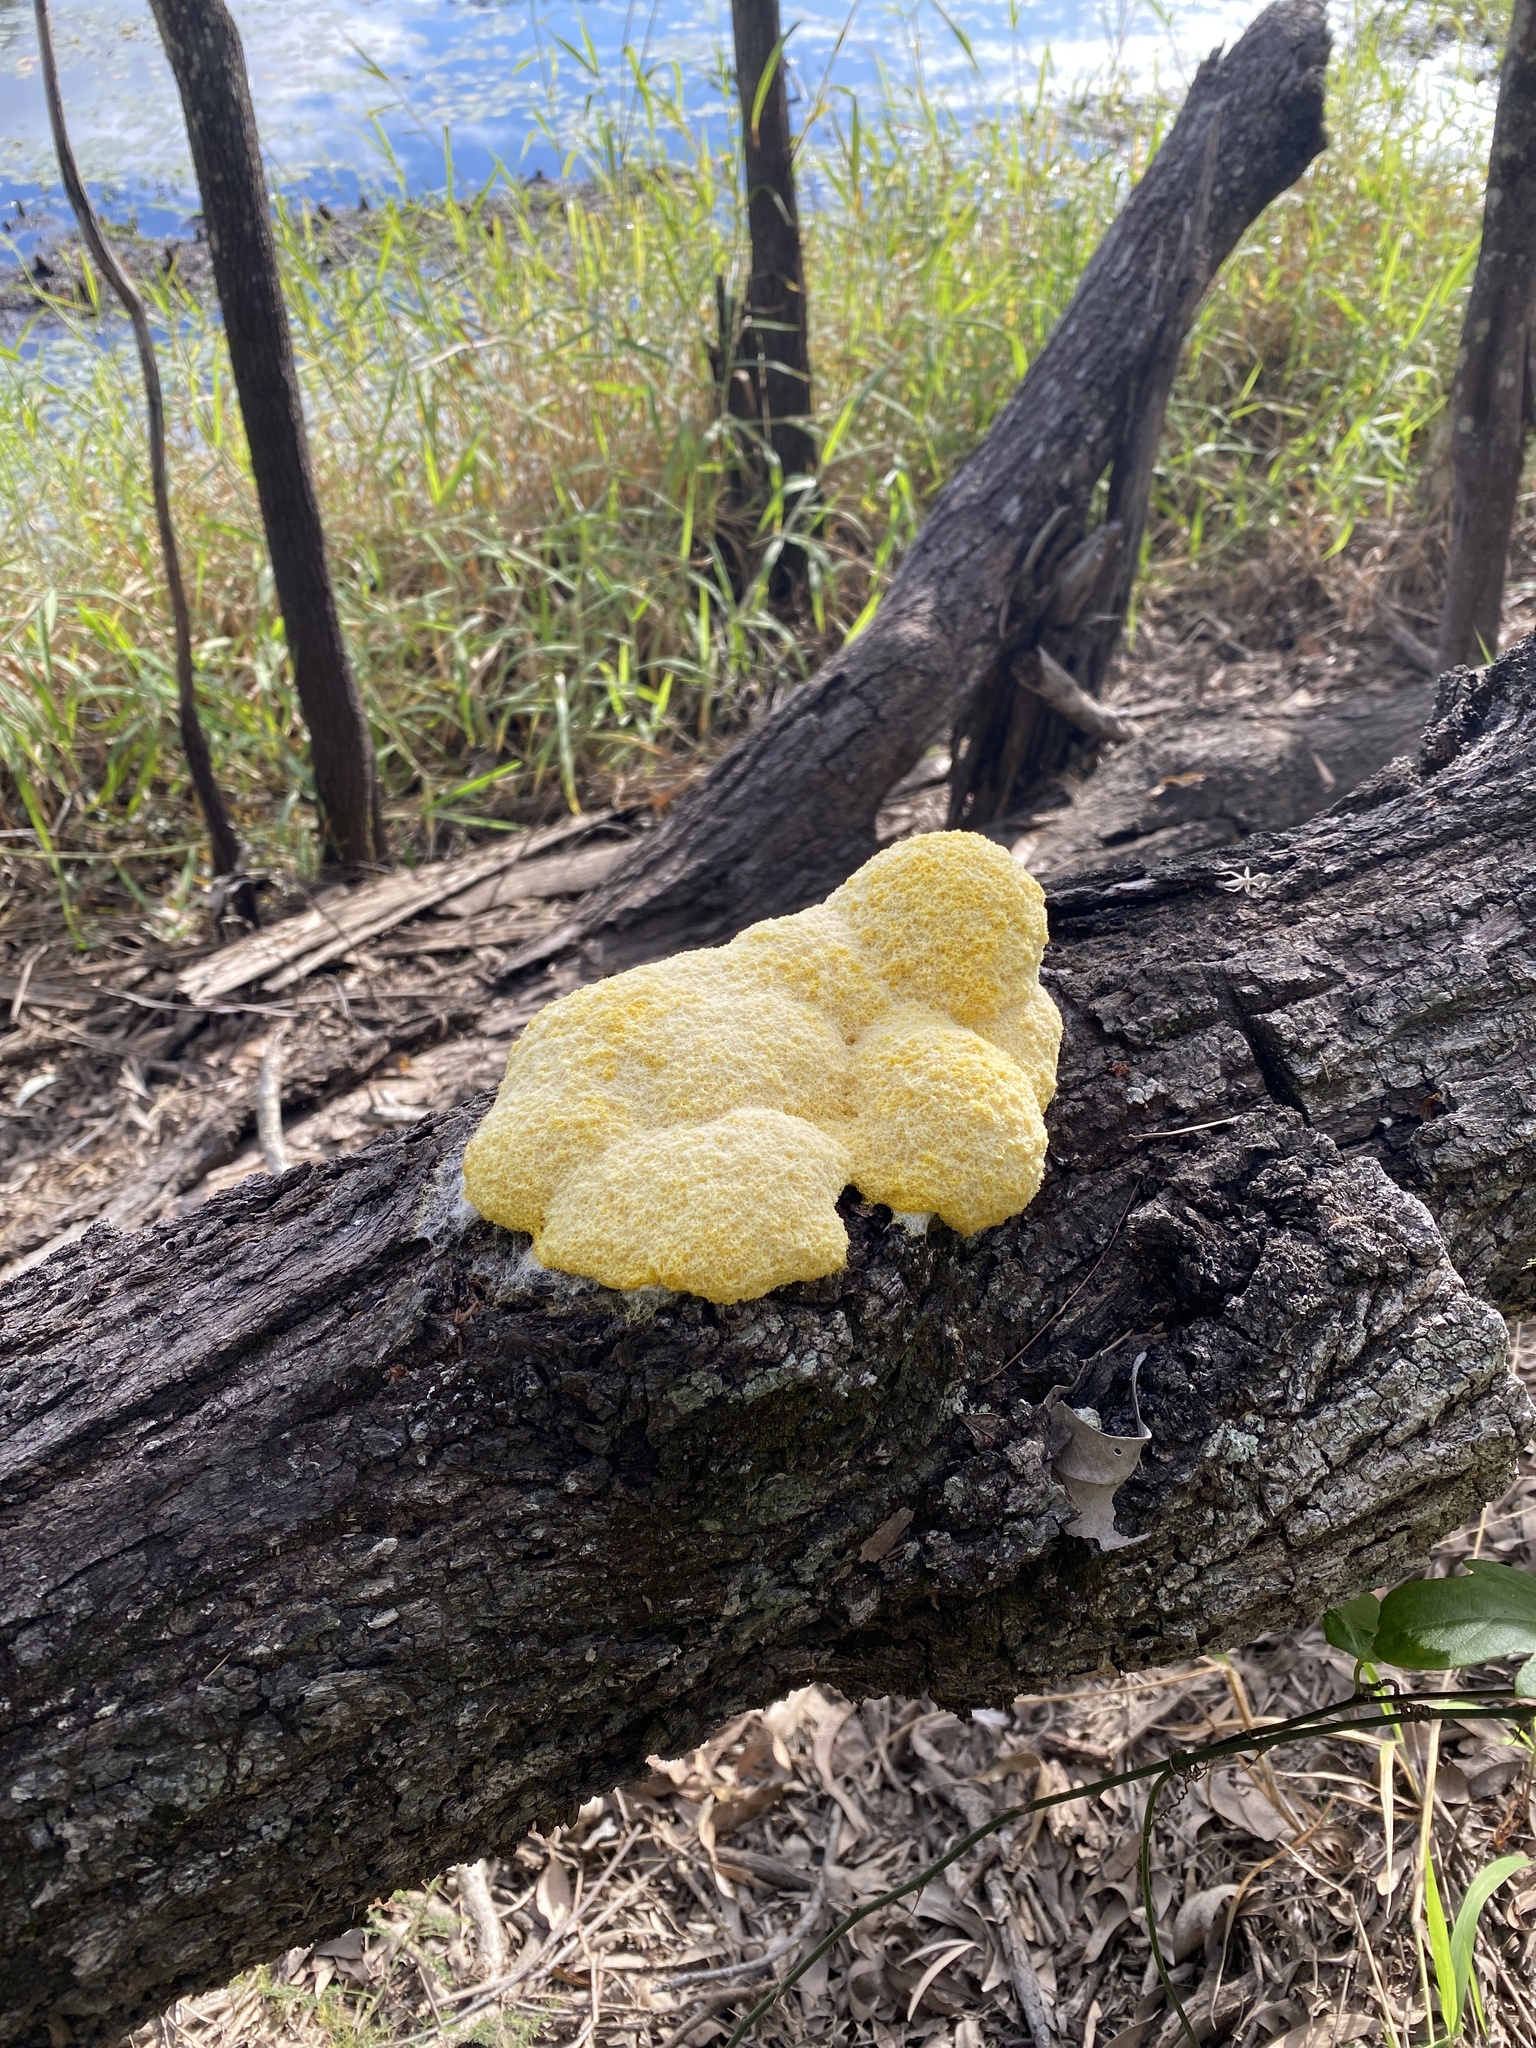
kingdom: Protozoa
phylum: Mycetozoa
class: Myxomycetes
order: Physarales
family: Physaraceae
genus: Fuligo
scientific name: Fuligo septica
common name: Dog vomit slime mold
